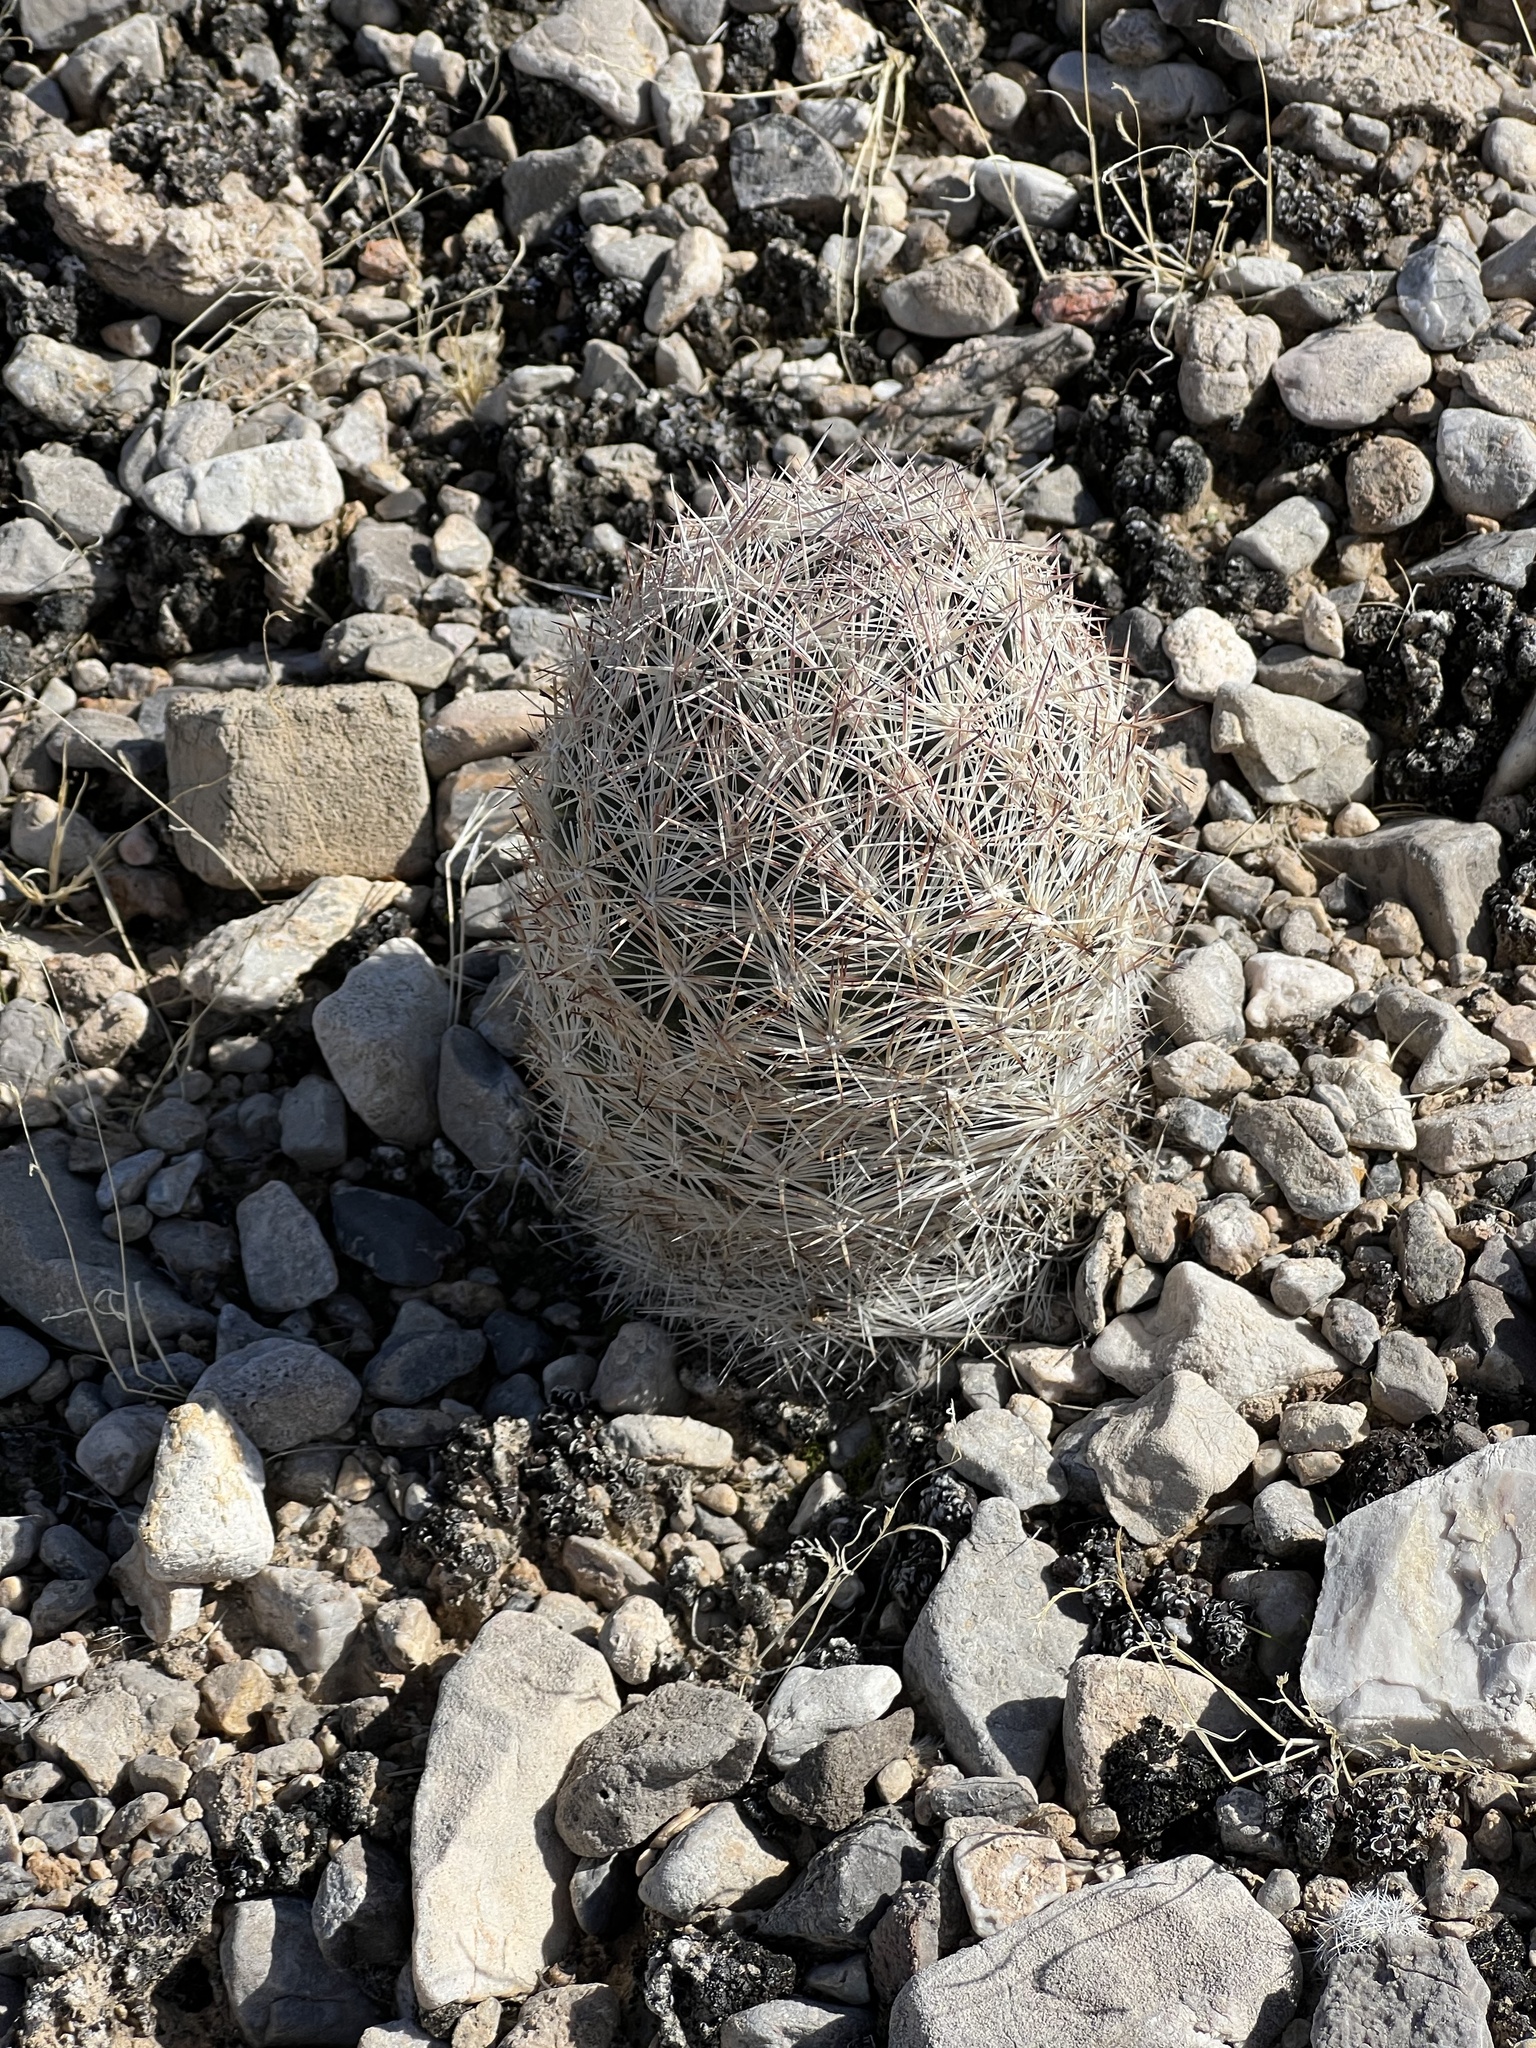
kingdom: Plantae
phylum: Tracheophyta
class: Magnoliopsida
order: Caryophyllales
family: Cactaceae
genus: Pelecyphora
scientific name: Pelecyphora dasyacantha
